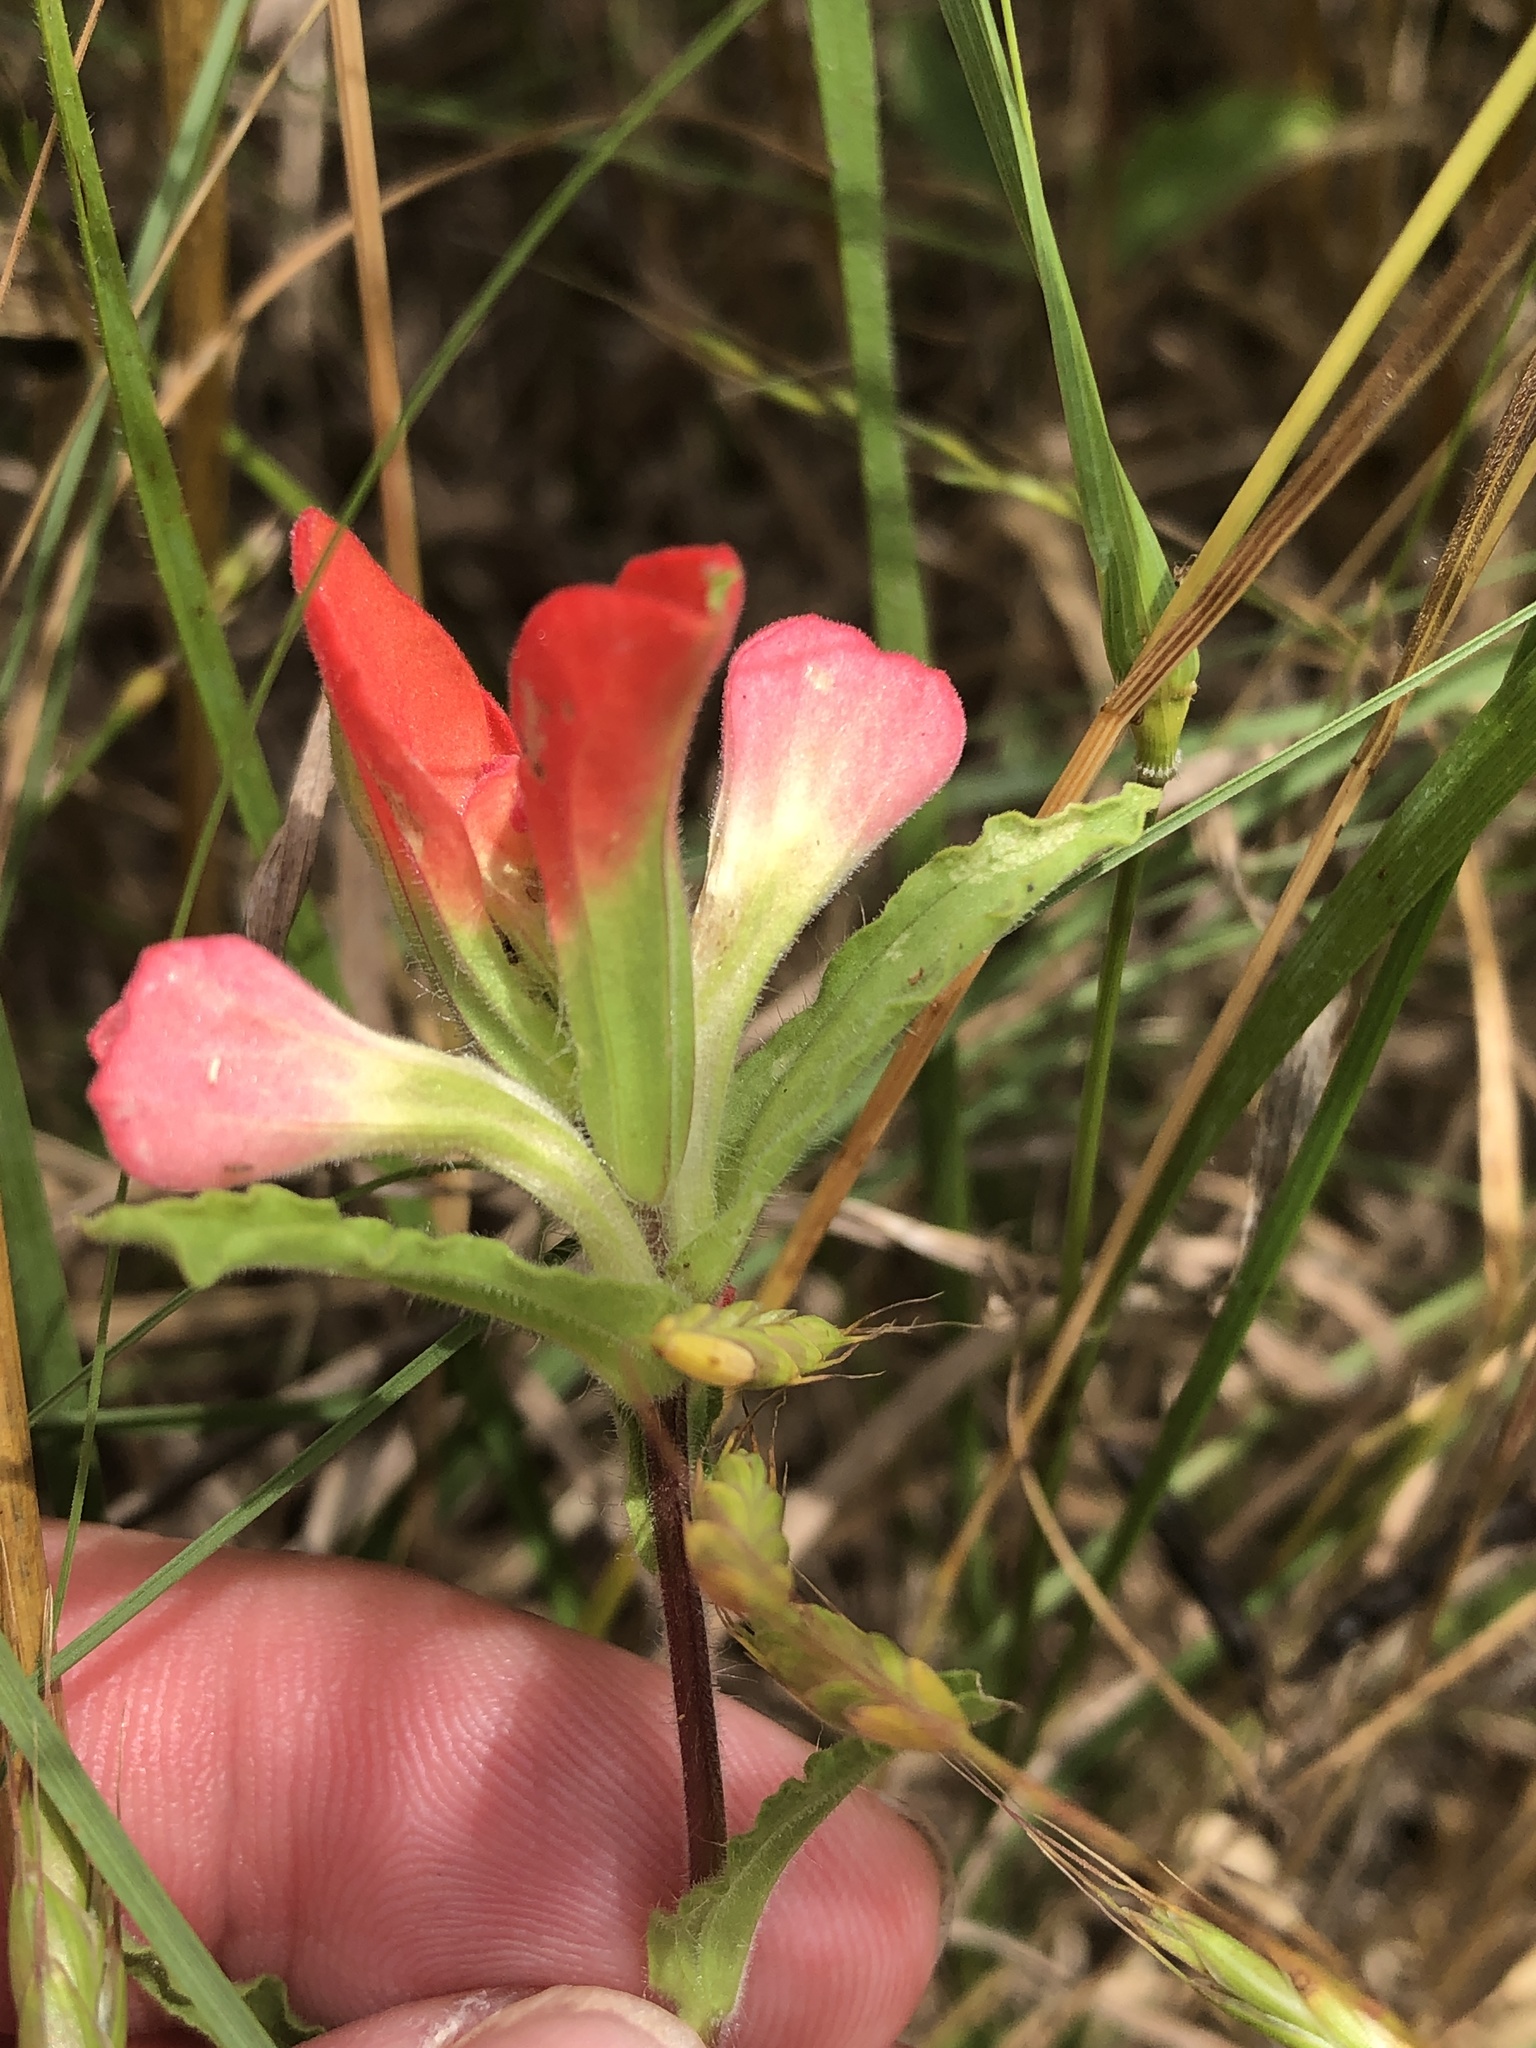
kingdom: Plantae
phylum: Tracheophyta
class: Magnoliopsida
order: Lamiales
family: Orobanchaceae
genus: Castilleja
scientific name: Castilleja indivisa
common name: Texas paintbrush
